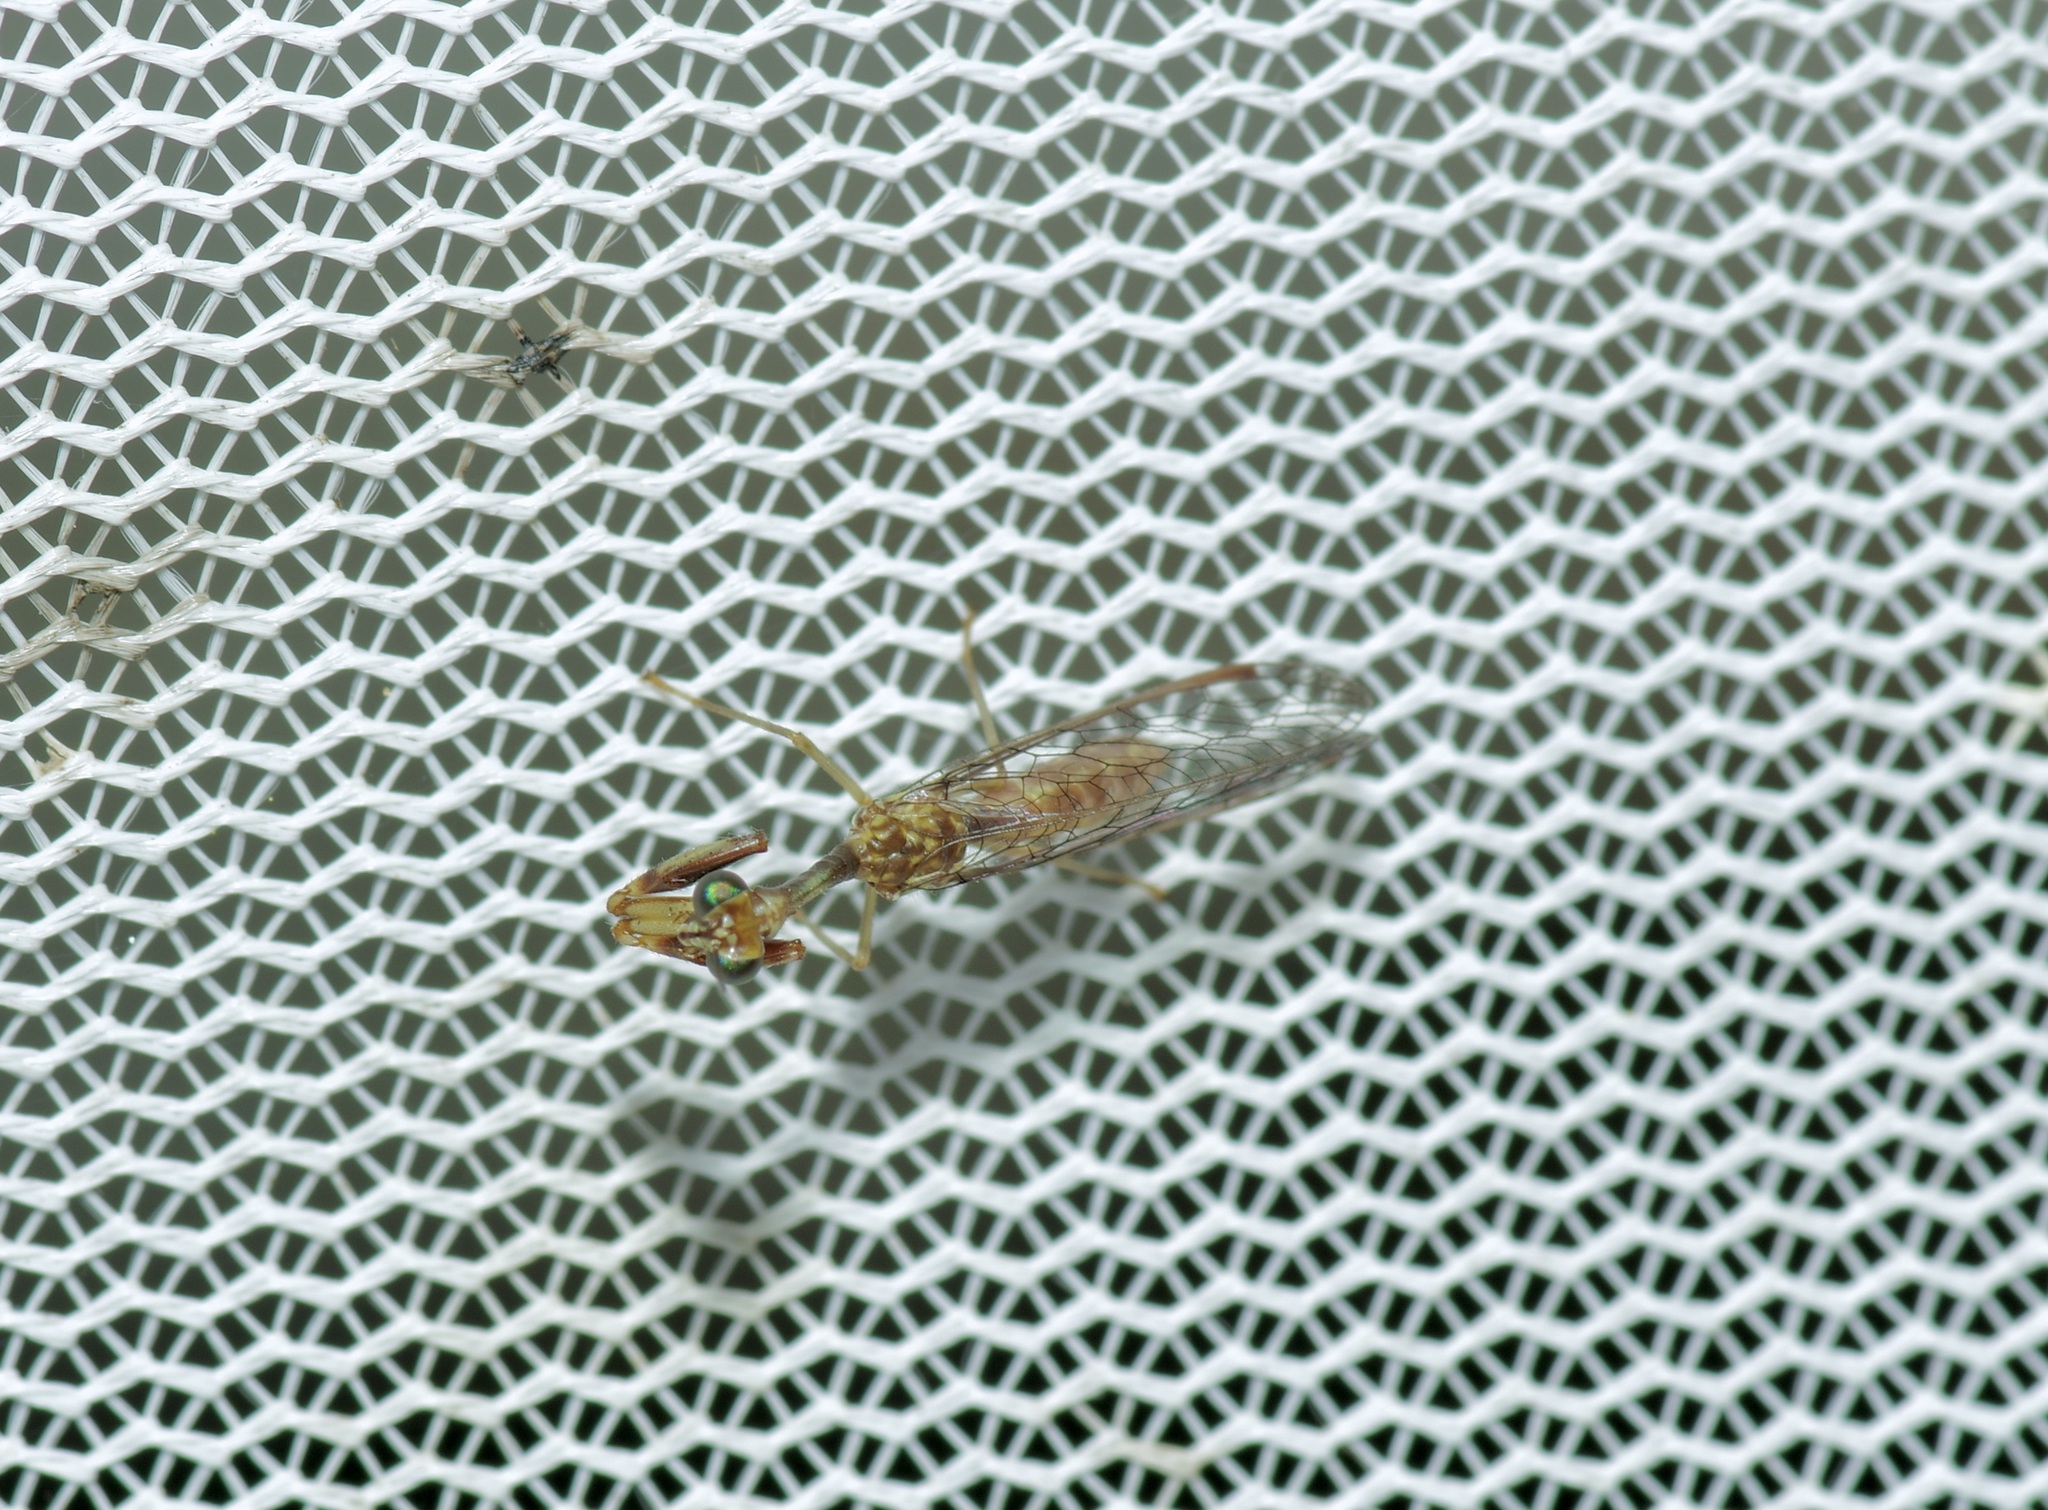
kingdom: Animalia
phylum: Arthropoda
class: Insecta
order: Neuroptera
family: Mantispidae
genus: Leptomantispa
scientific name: Leptomantispa pulchella
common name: Stevens's mantidfly
